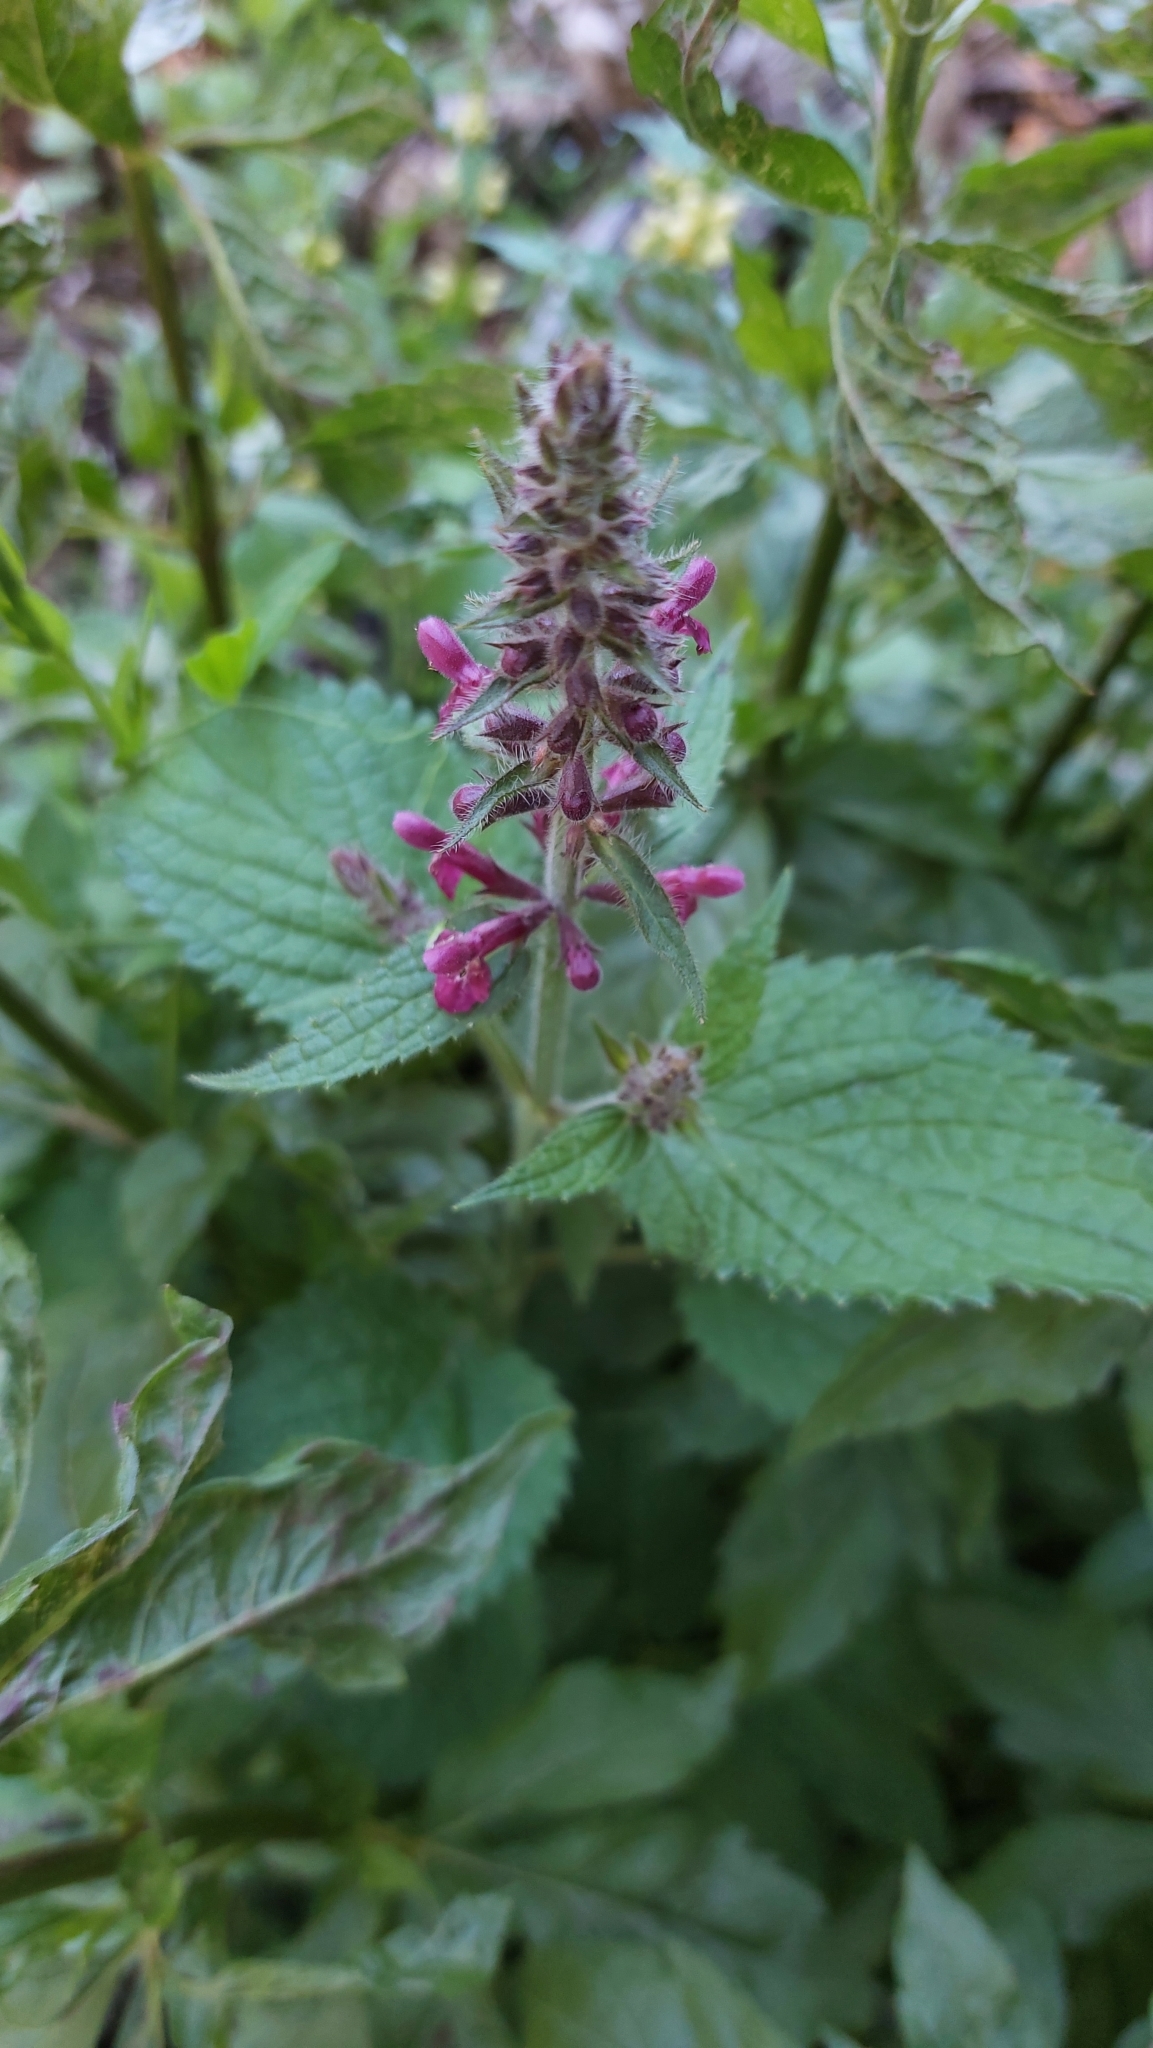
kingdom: Plantae
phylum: Tracheophyta
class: Magnoliopsida
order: Lamiales
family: Lamiaceae
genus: Stachys
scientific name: Stachys sylvatica
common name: Hedge woundwort
